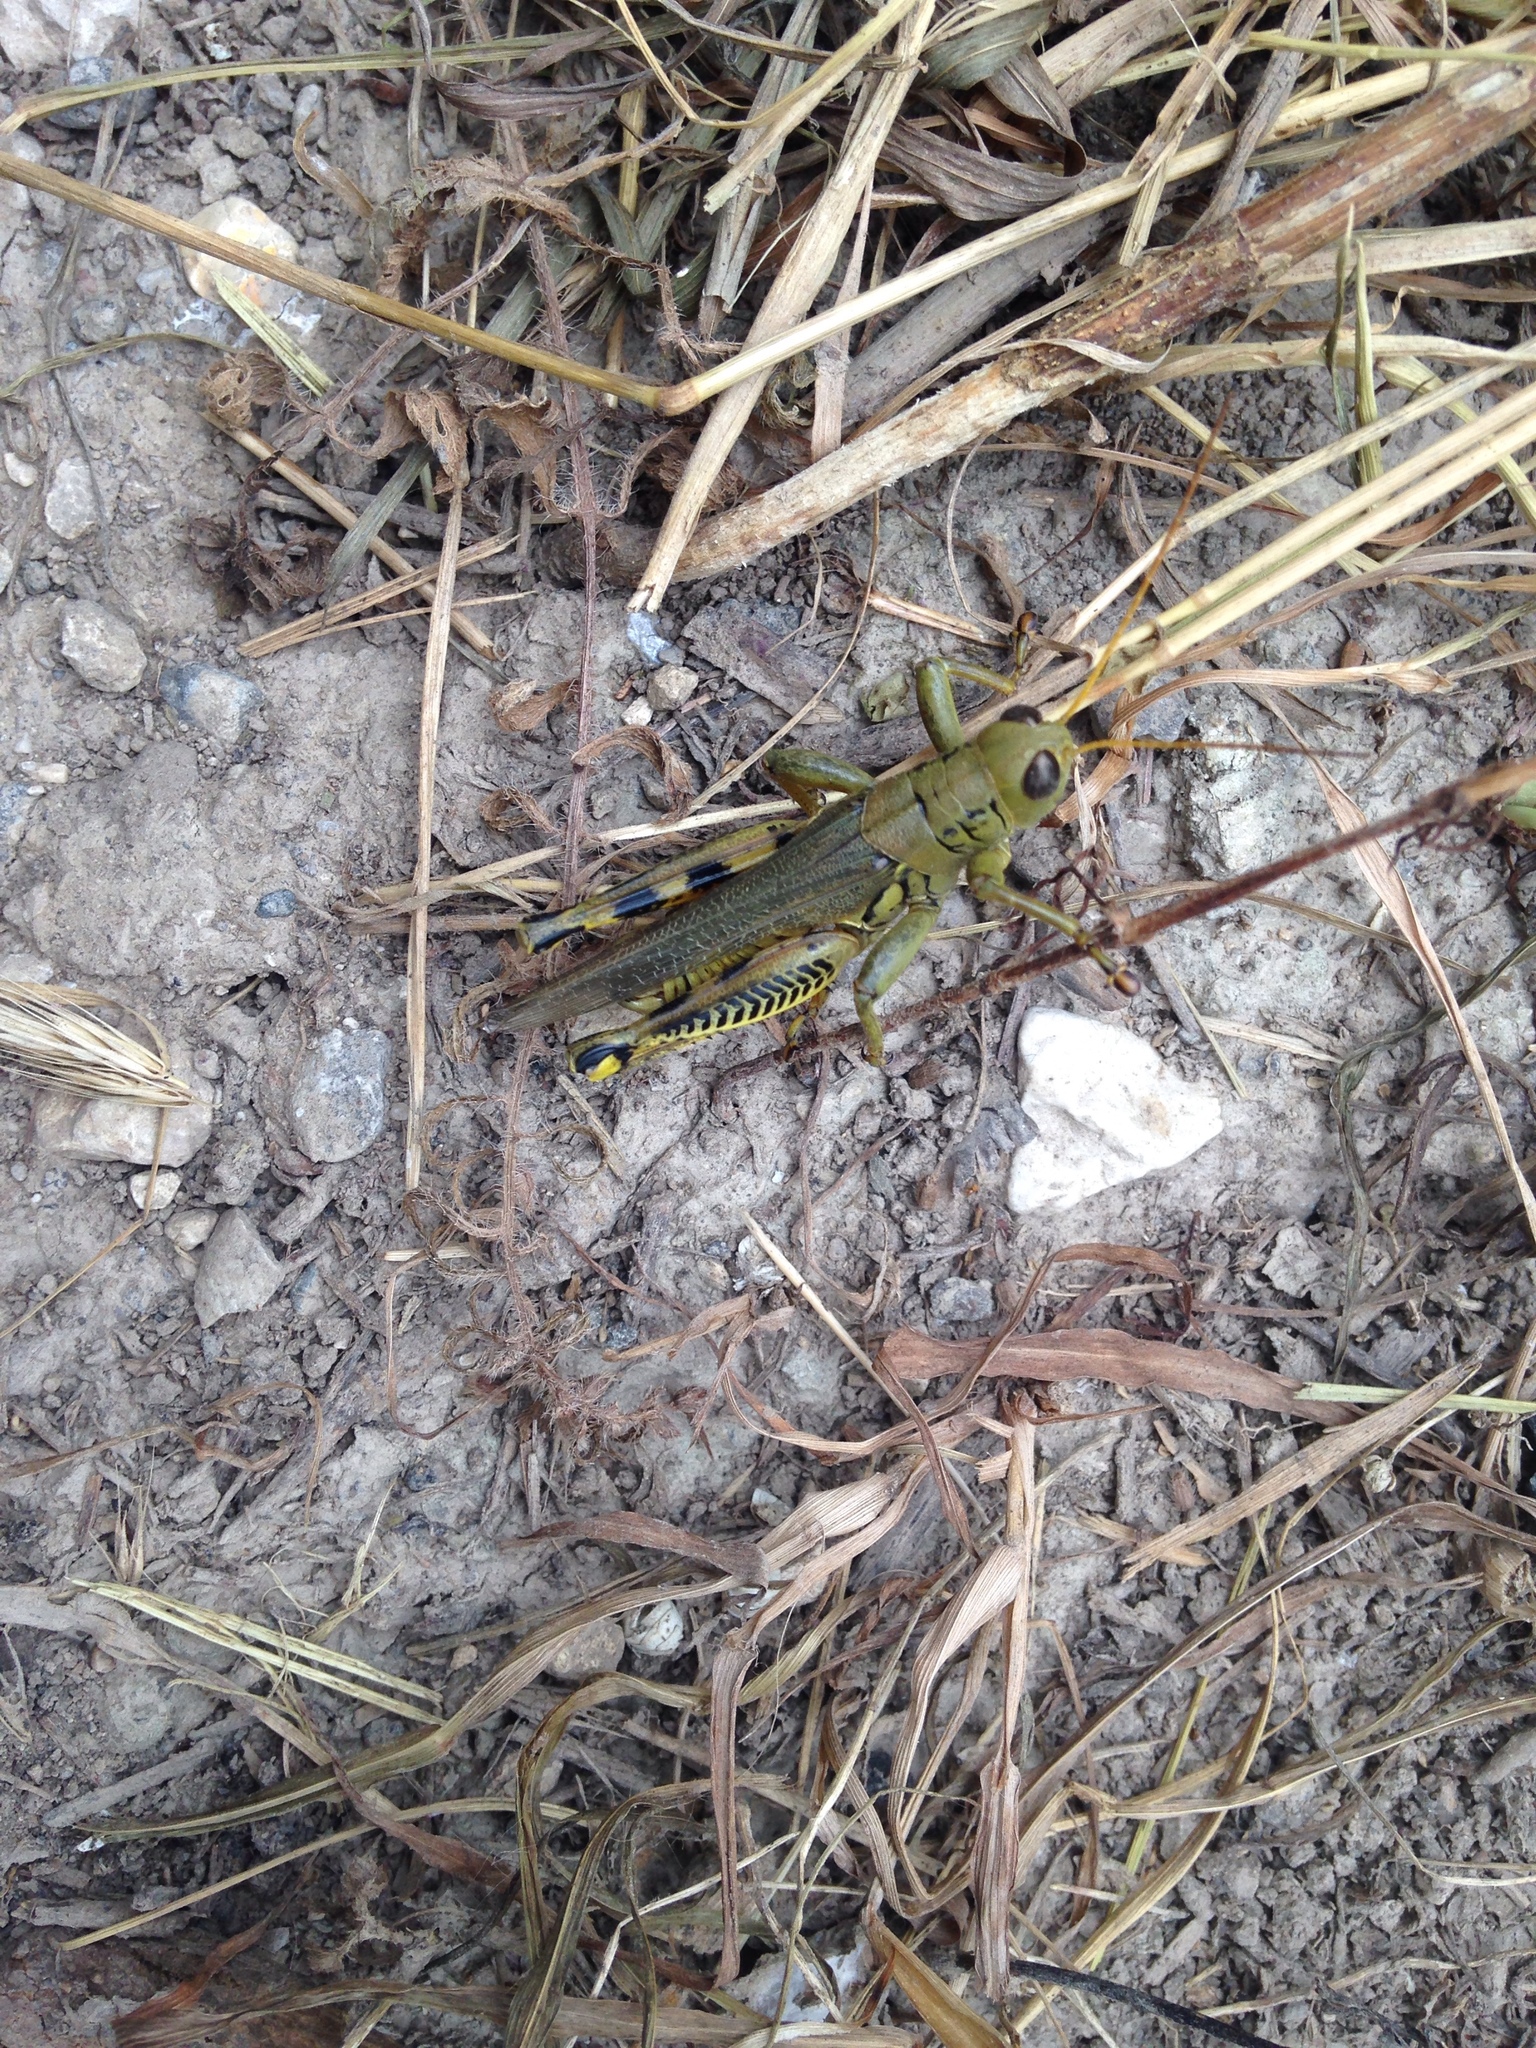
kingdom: Animalia
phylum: Arthropoda
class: Insecta
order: Orthoptera
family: Acrididae
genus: Melanoplus
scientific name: Melanoplus differentialis
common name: Differential grasshopper
